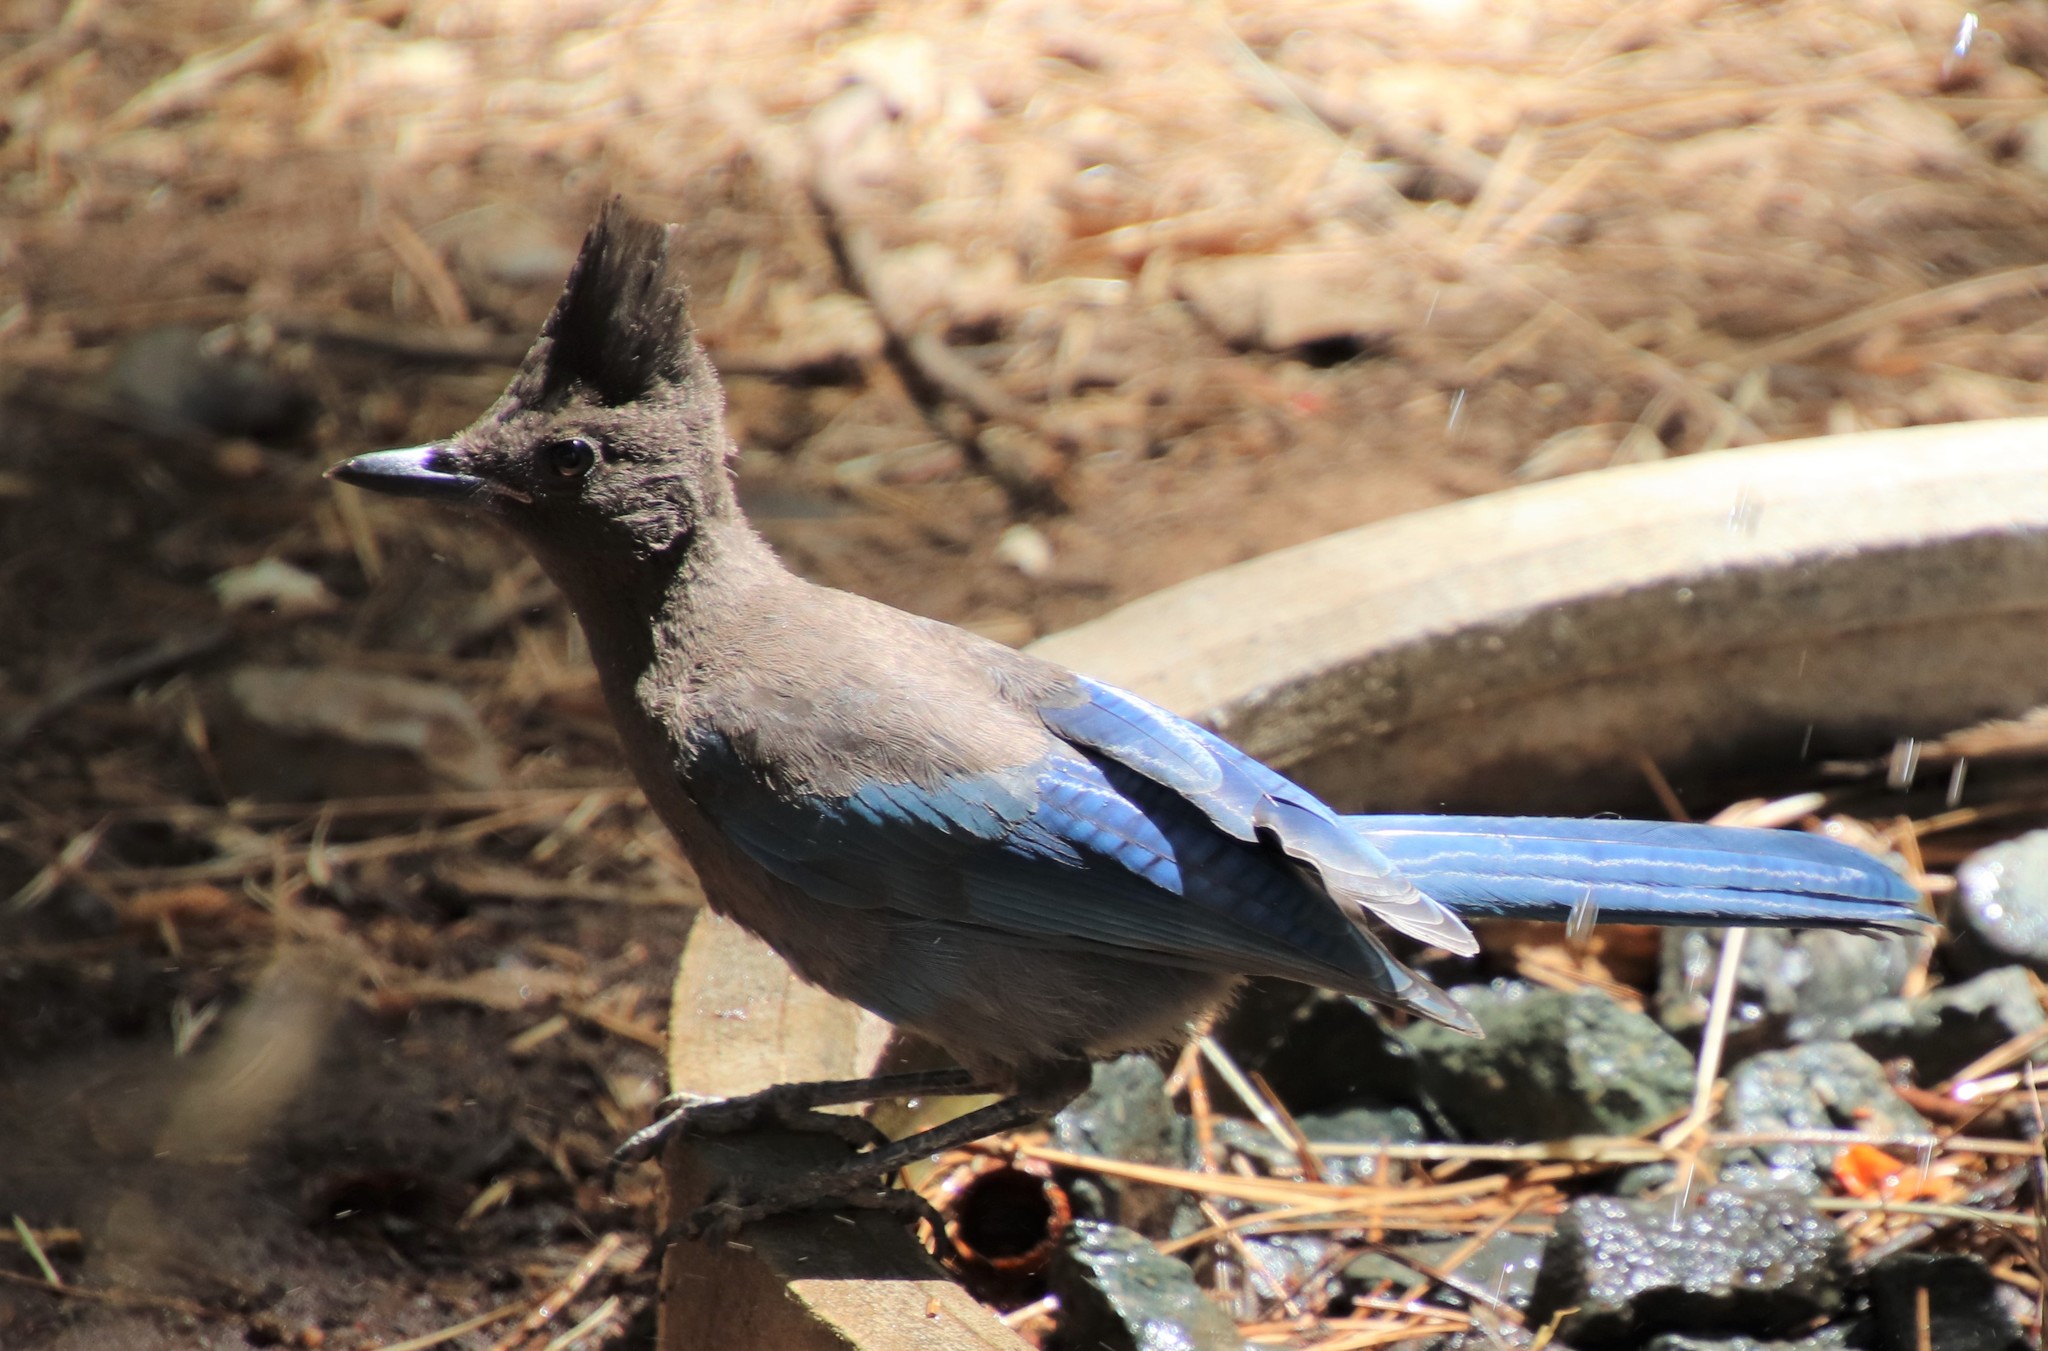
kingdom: Animalia
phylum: Chordata
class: Aves
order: Passeriformes
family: Corvidae
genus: Cyanocitta
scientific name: Cyanocitta stelleri
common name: Steller's jay
